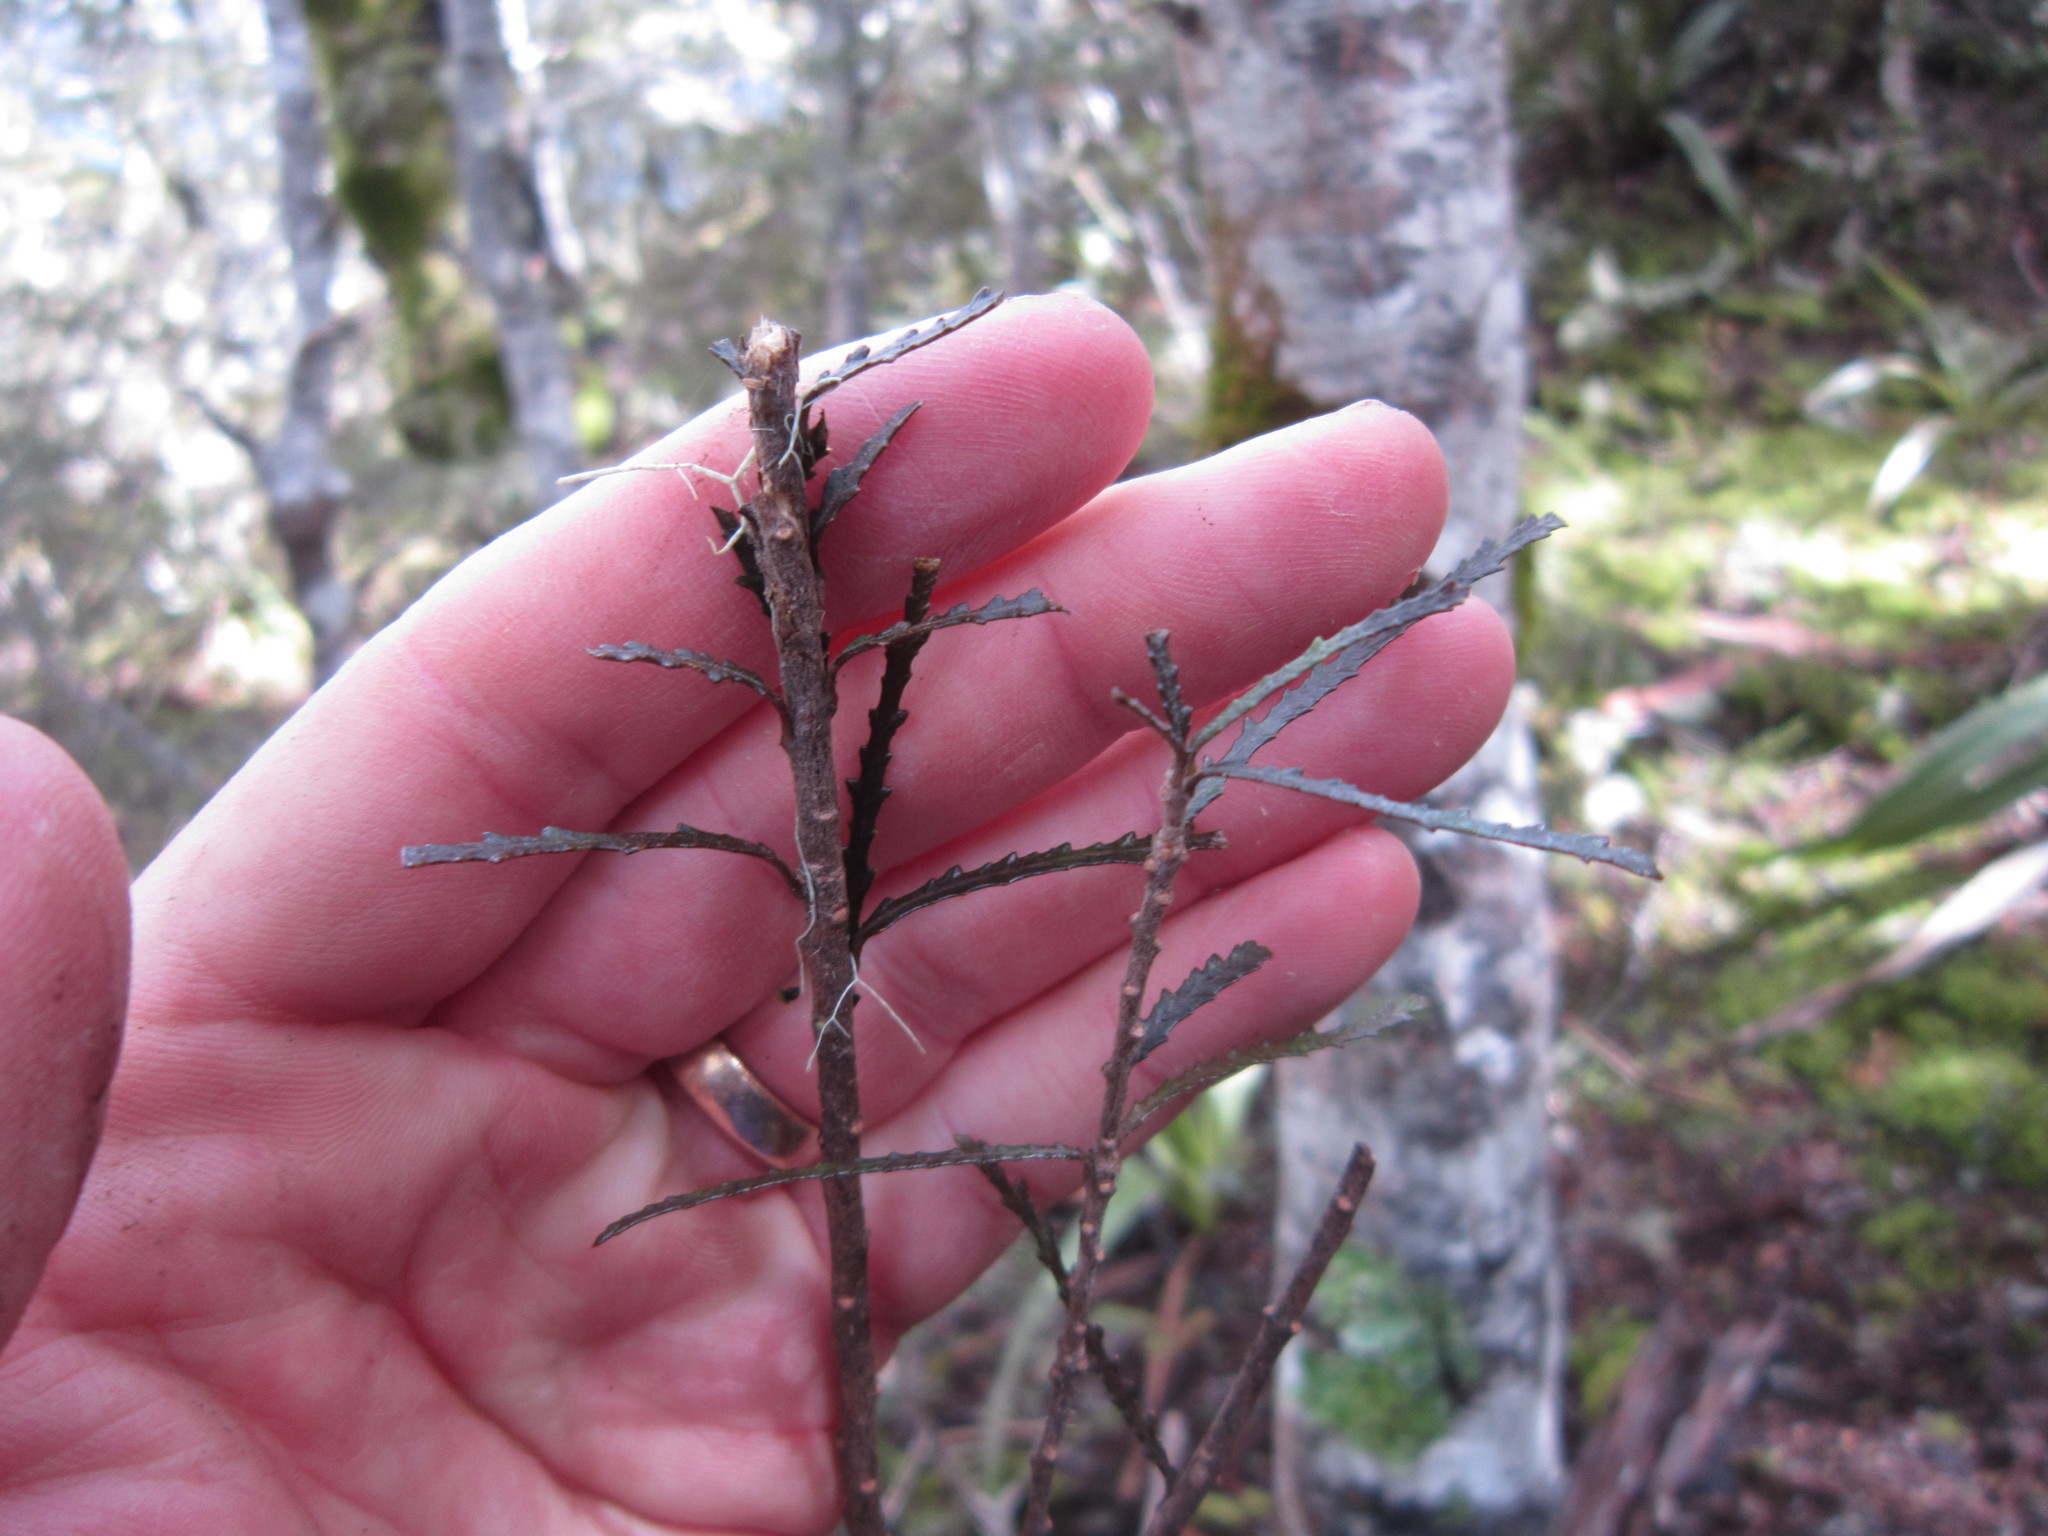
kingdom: Plantae
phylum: Tracheophyta
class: Magnoliopsida
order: Apiales
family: Pittosporaceae
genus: Pittosporum
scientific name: Pittosporum patulum
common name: Pitpat
